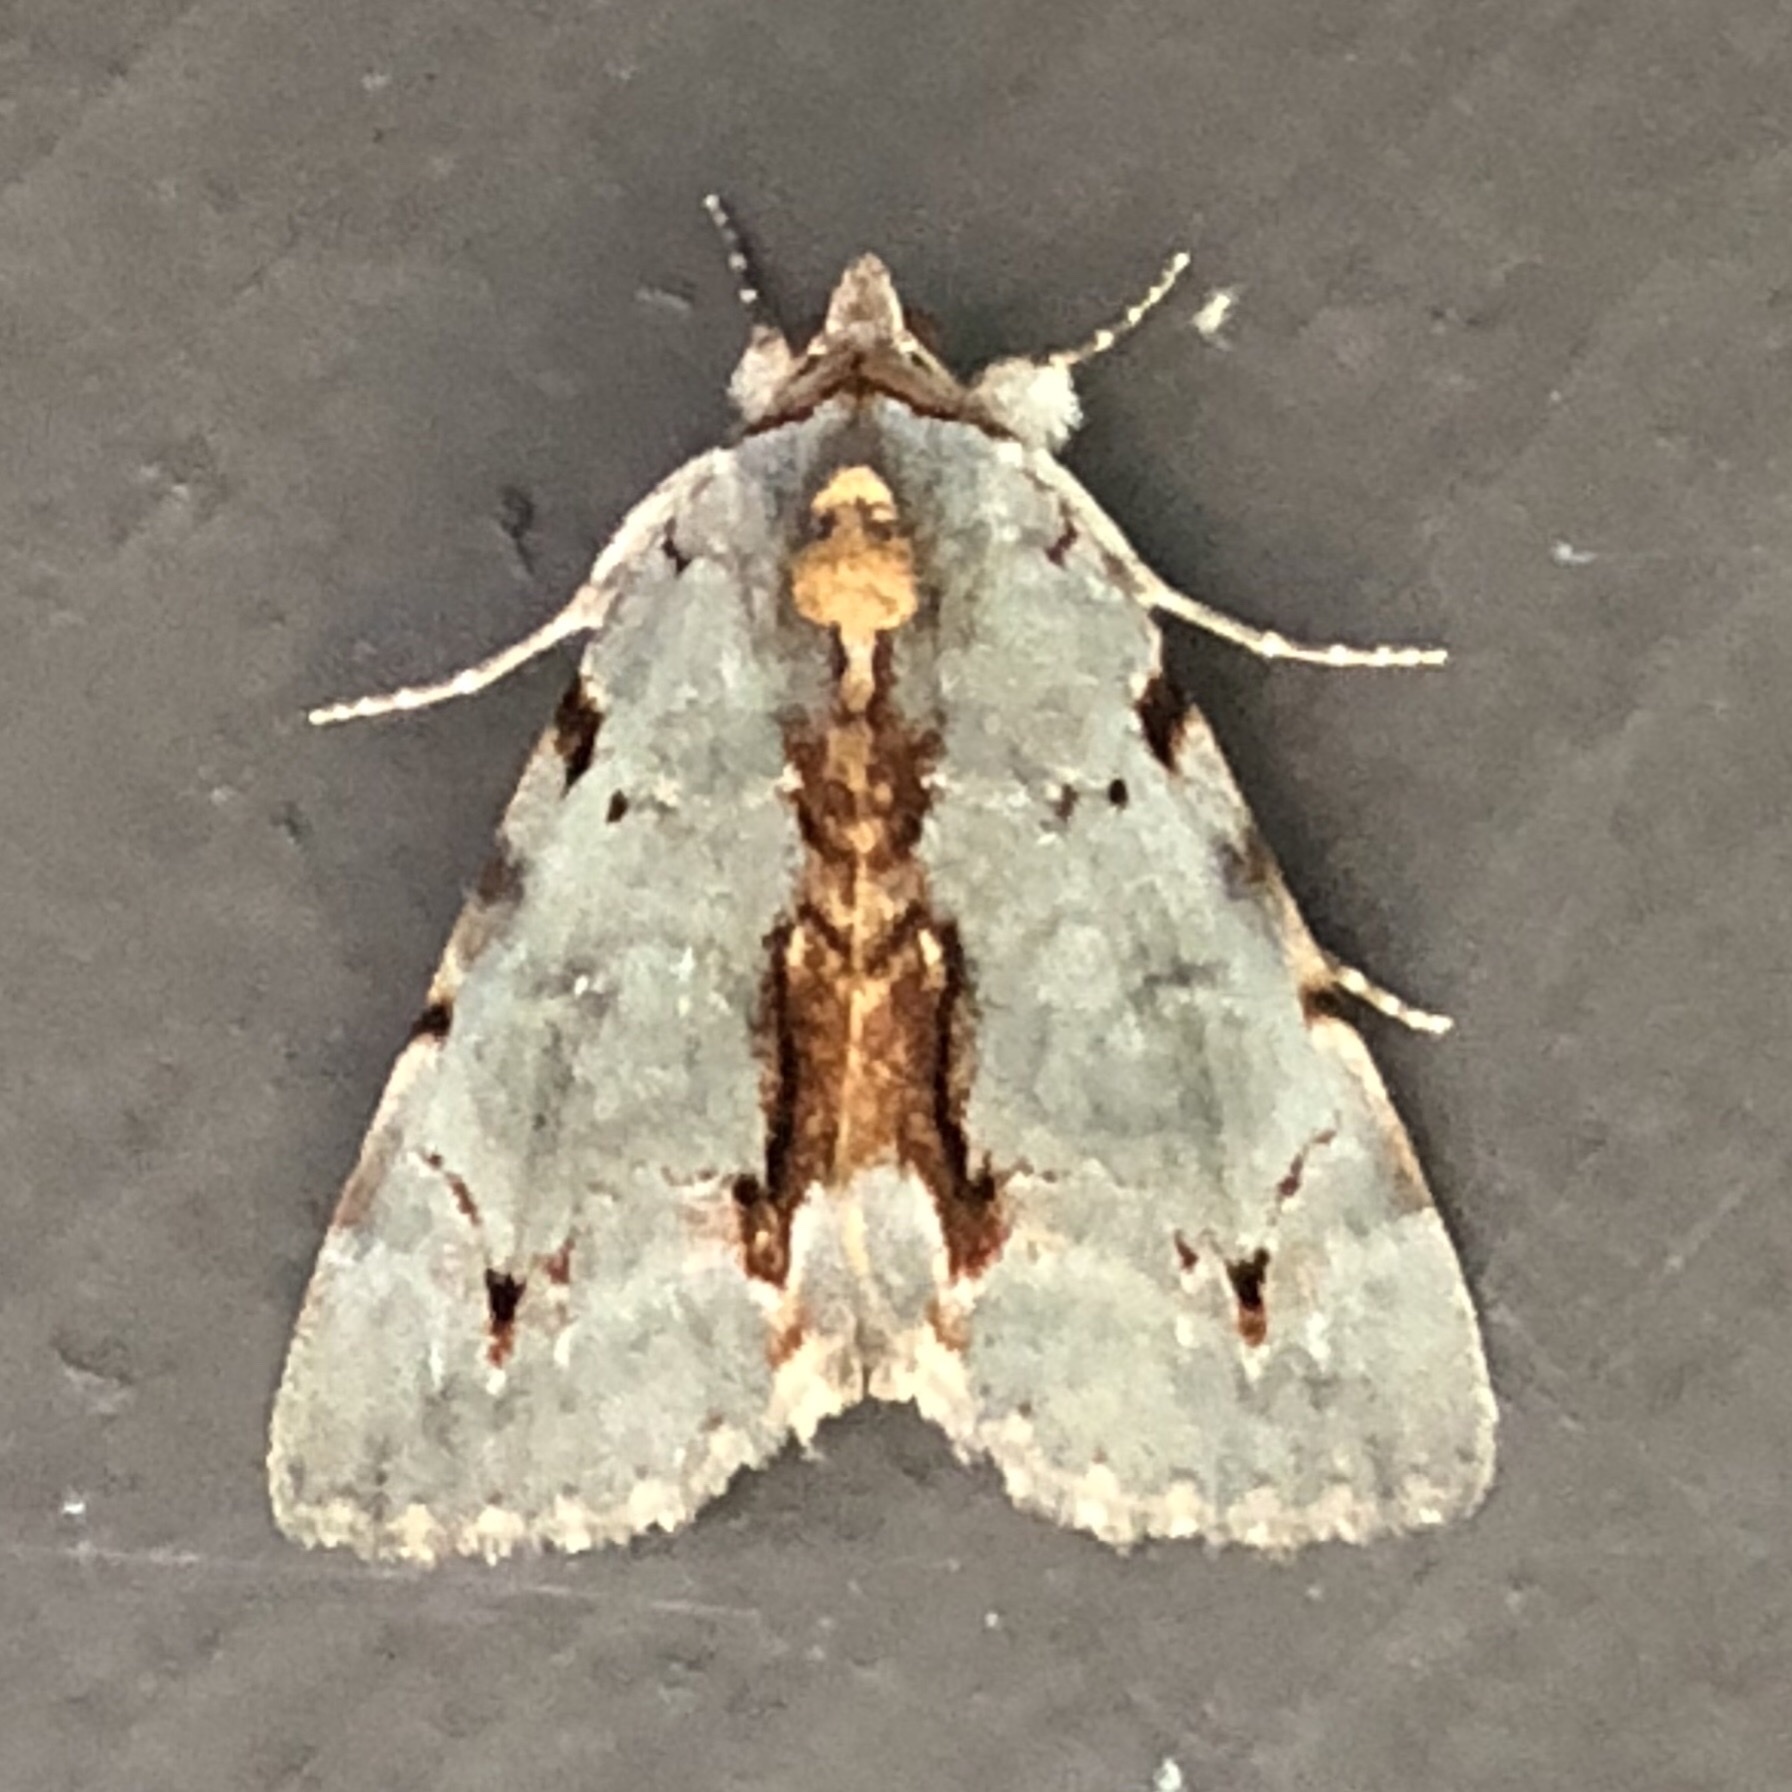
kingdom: Animalia
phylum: Arthropoda
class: Insecta
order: Lepidoptera
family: Erebidae
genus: Catocala
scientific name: Catocala grynea
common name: Woody underwing
